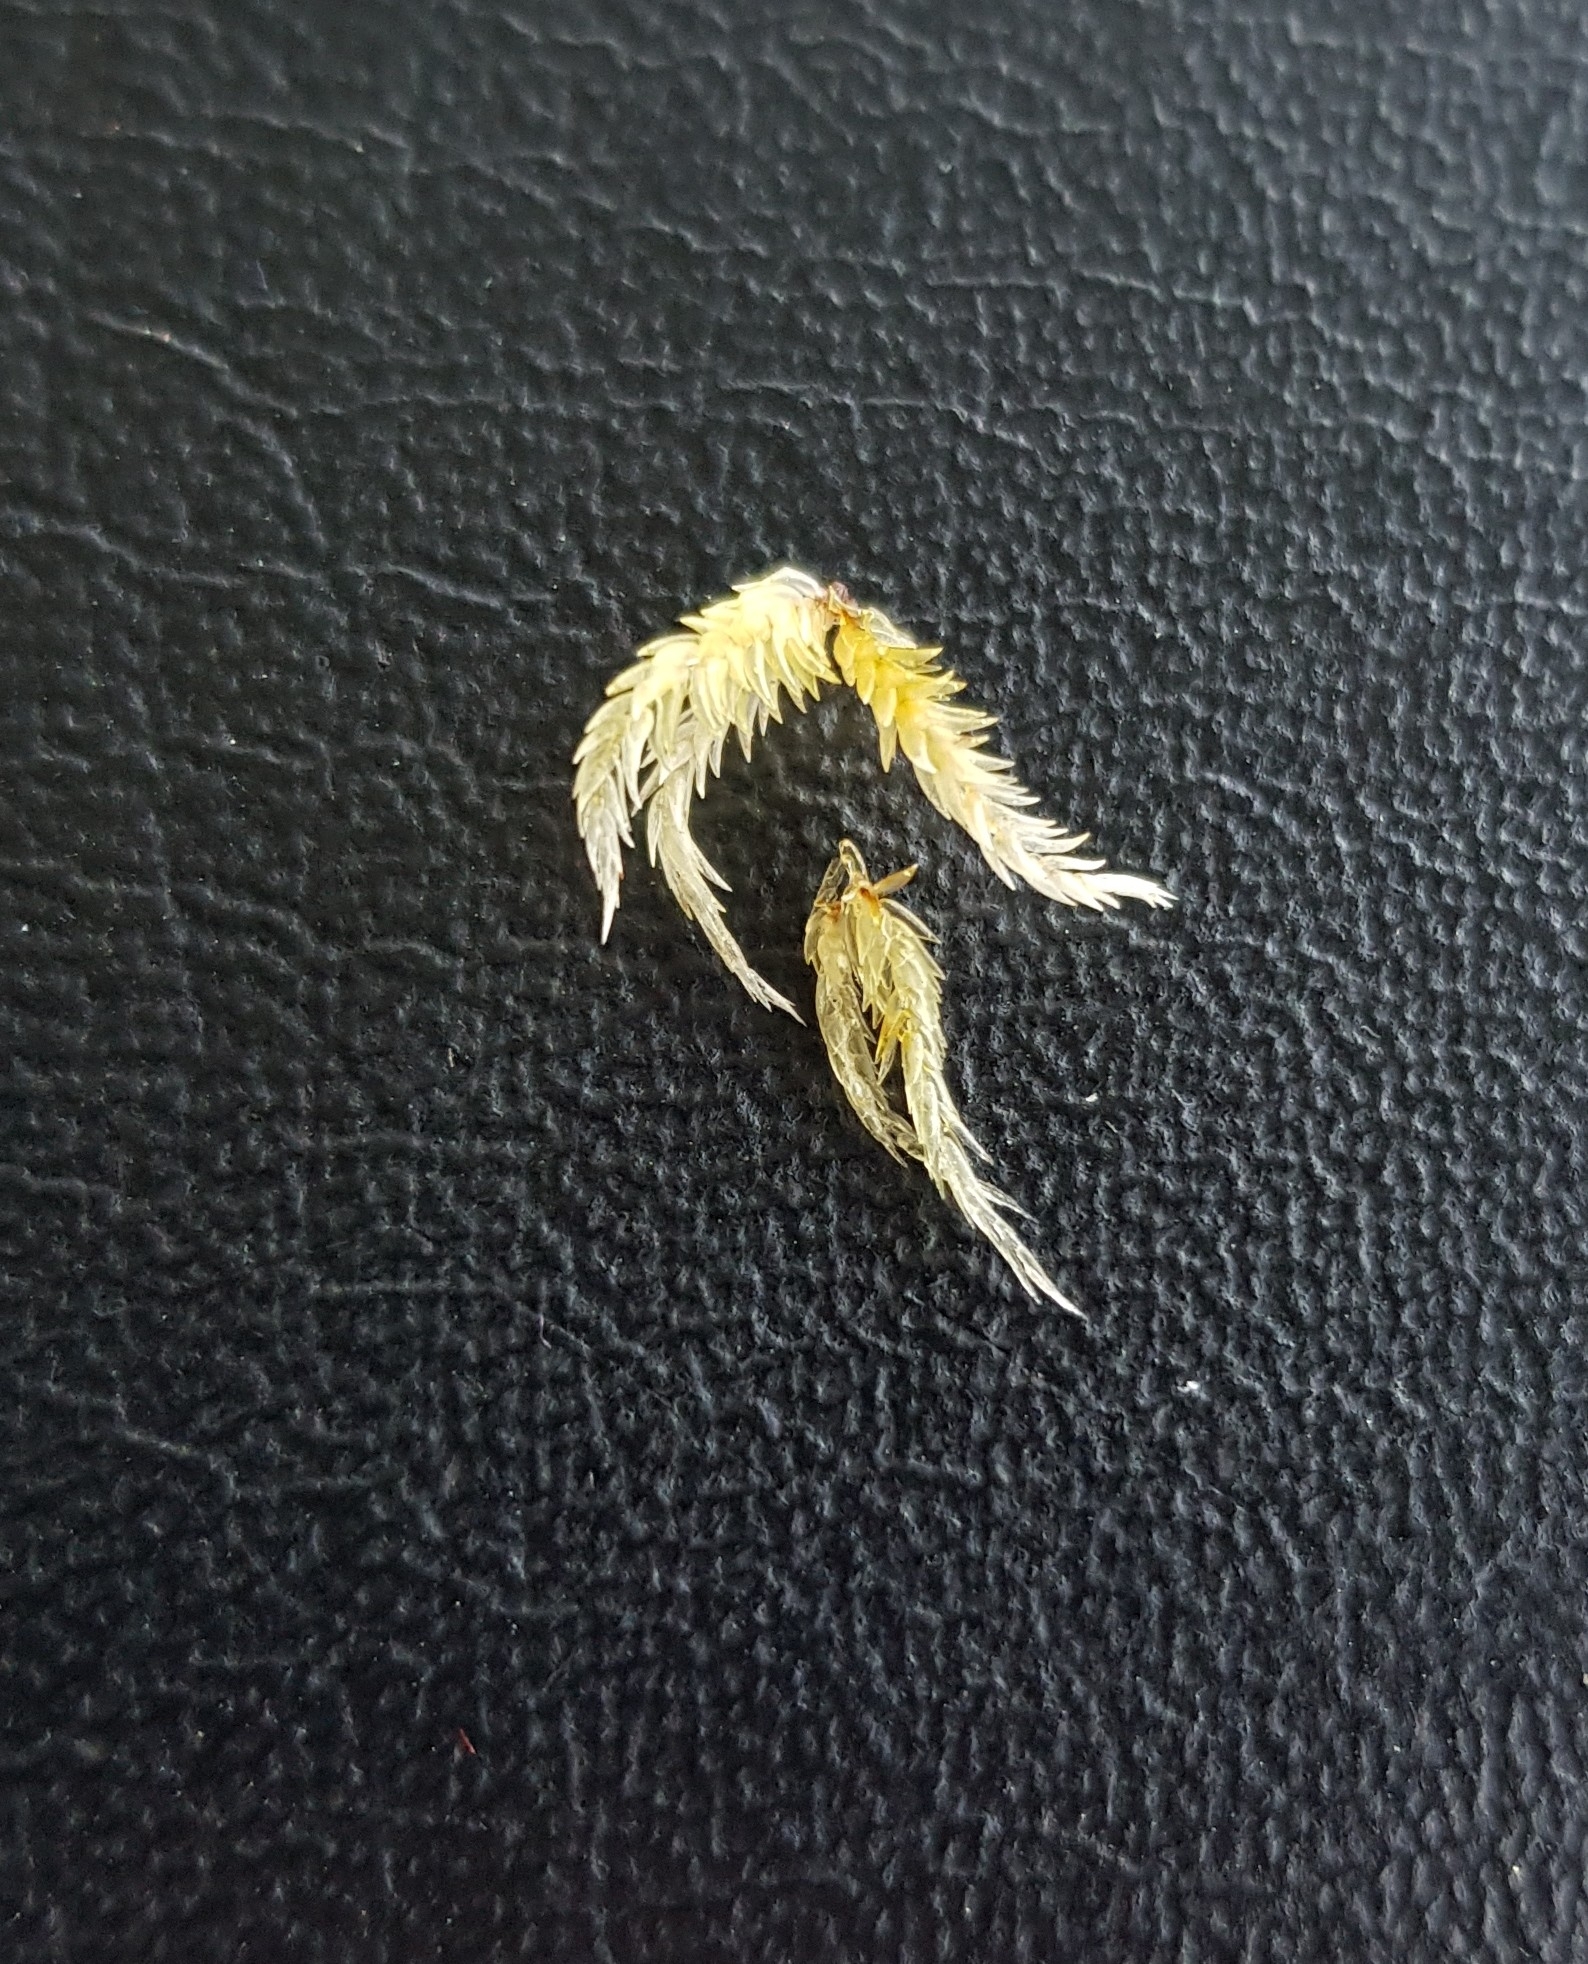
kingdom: Plantae
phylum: Bryophyta
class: Sphagnopsida
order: Sphagnales
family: Sphagnaceae
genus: Sphagnum
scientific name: Sphagnum inundatum
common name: Lesser cow-horn bog-moss
